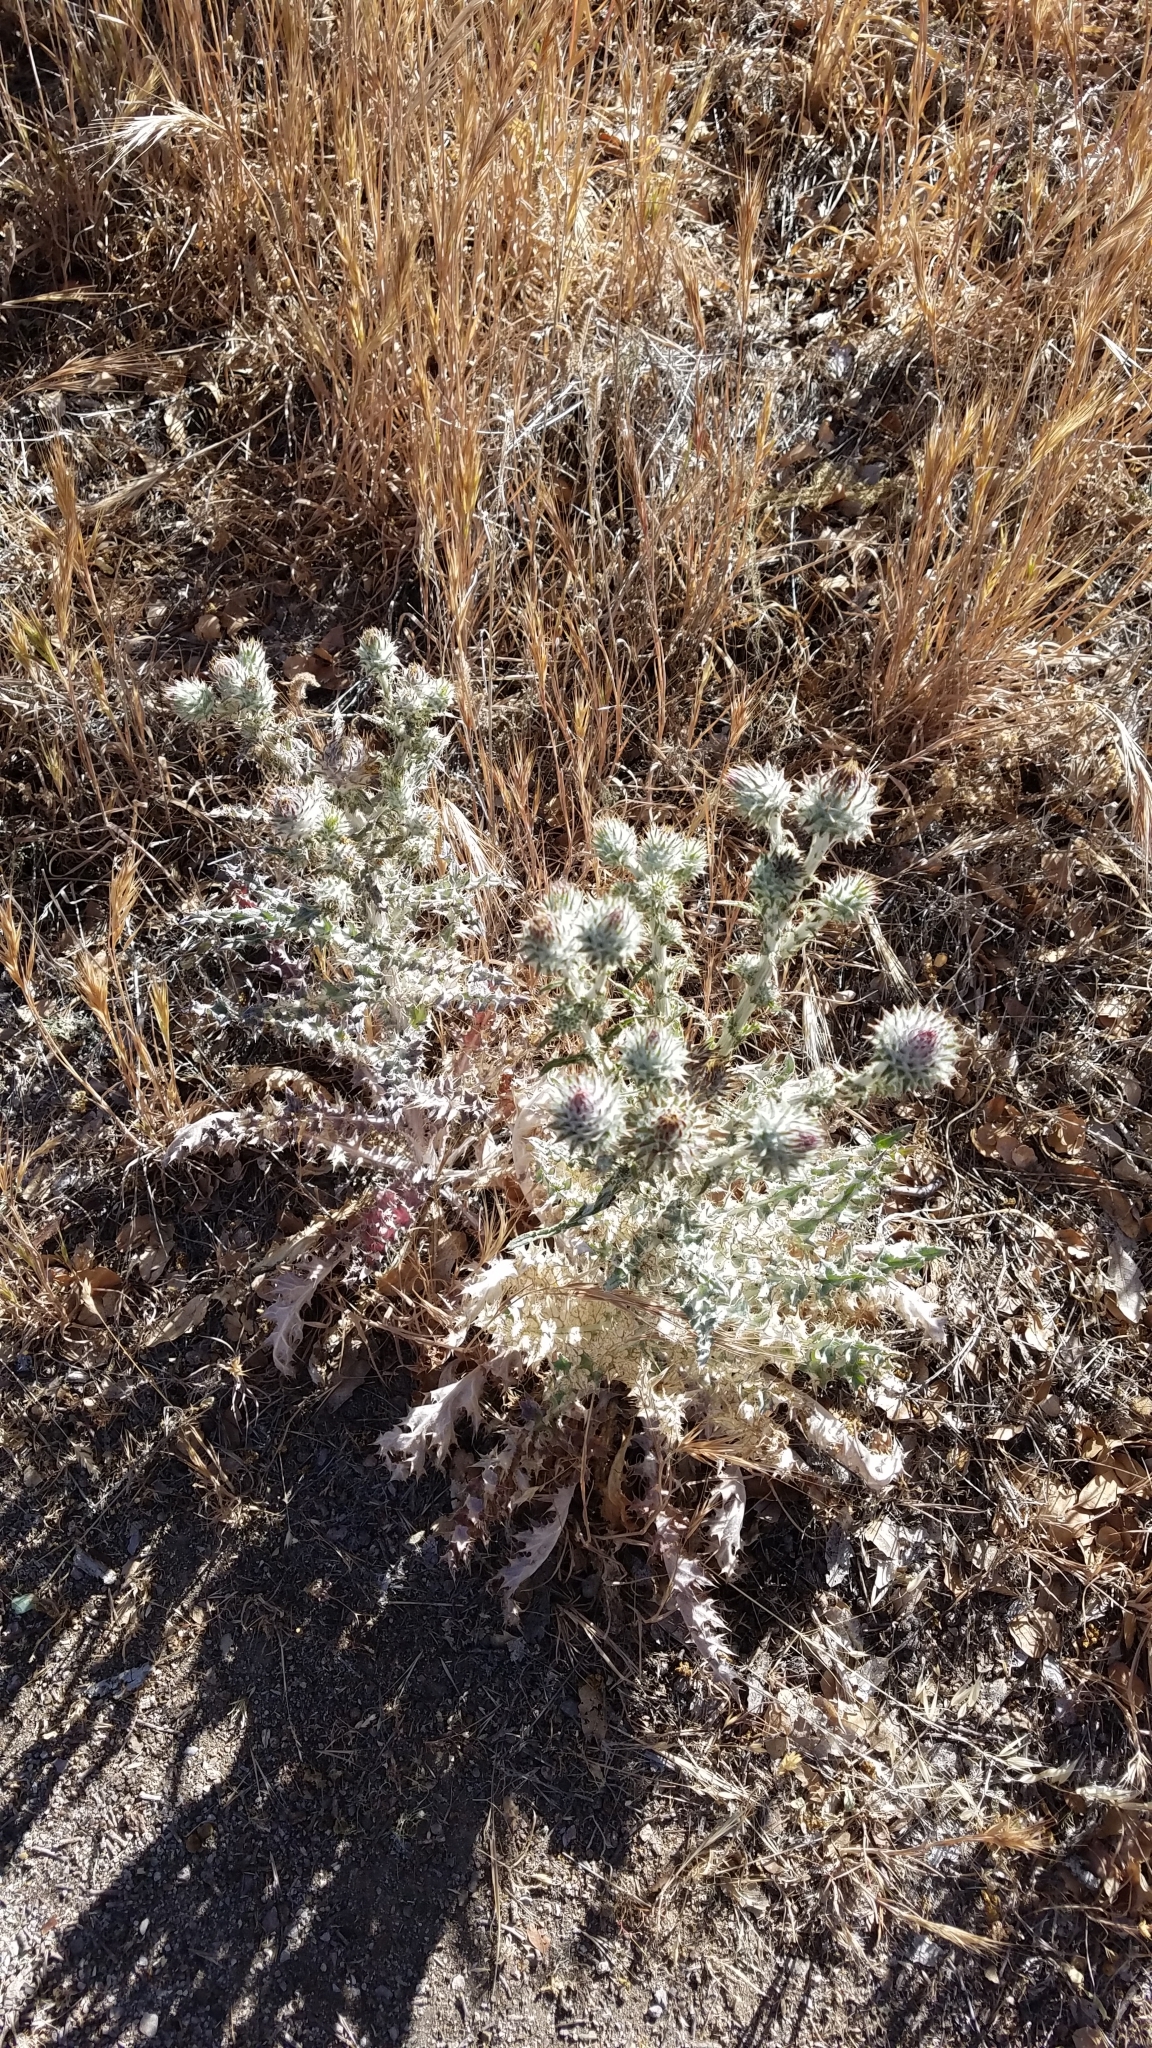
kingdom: Plantae
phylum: Tracheophyta
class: Magnoliopsida
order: Asterales
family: Asteraceae
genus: Cirsium
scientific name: Cirsium occidentale
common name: Western thistle
